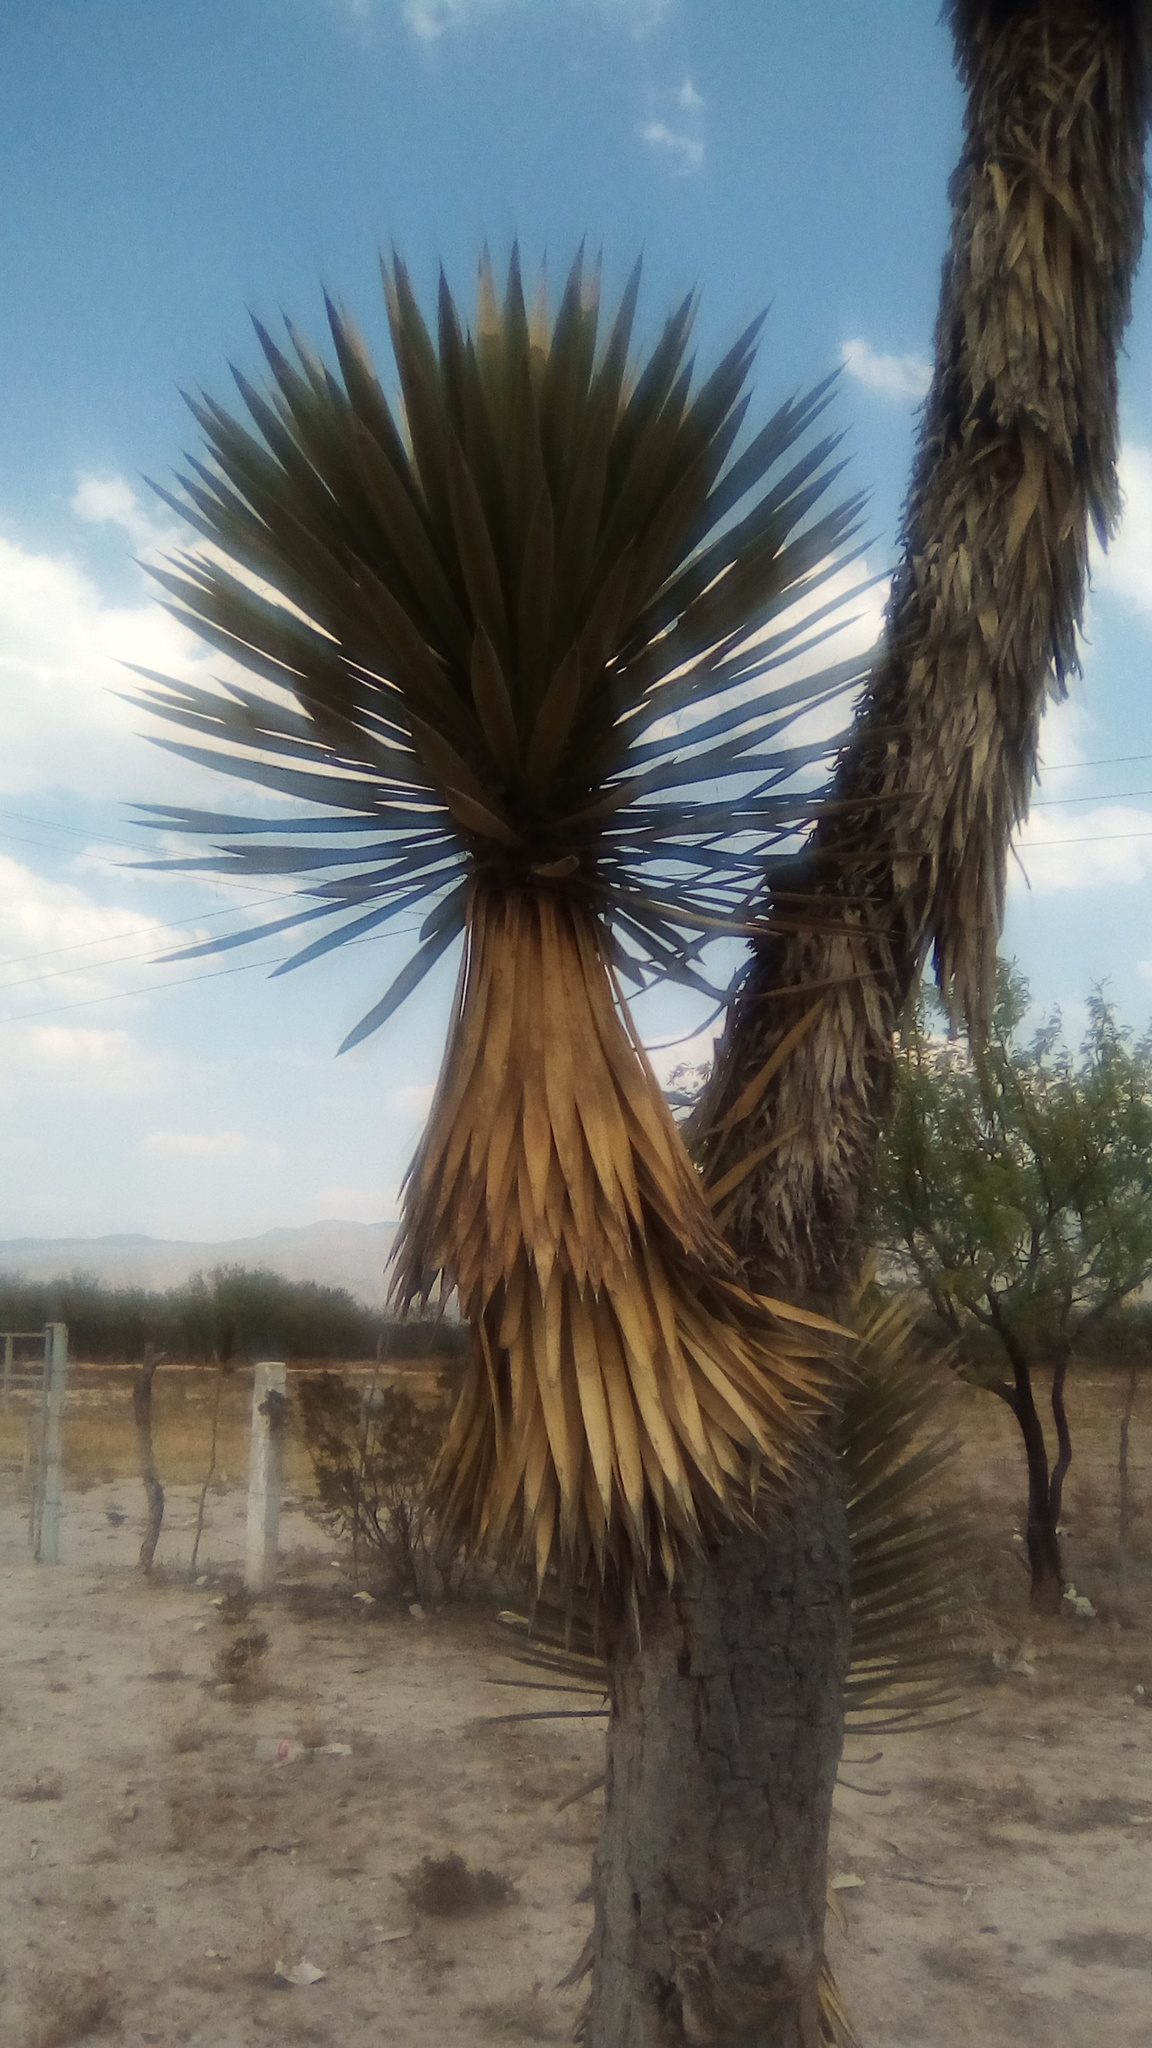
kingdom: Plantae
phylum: Tracheophyta
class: Liliopsida
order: Asparagales
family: Asparagaceae
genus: Yucca
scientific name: Yucca filifera
